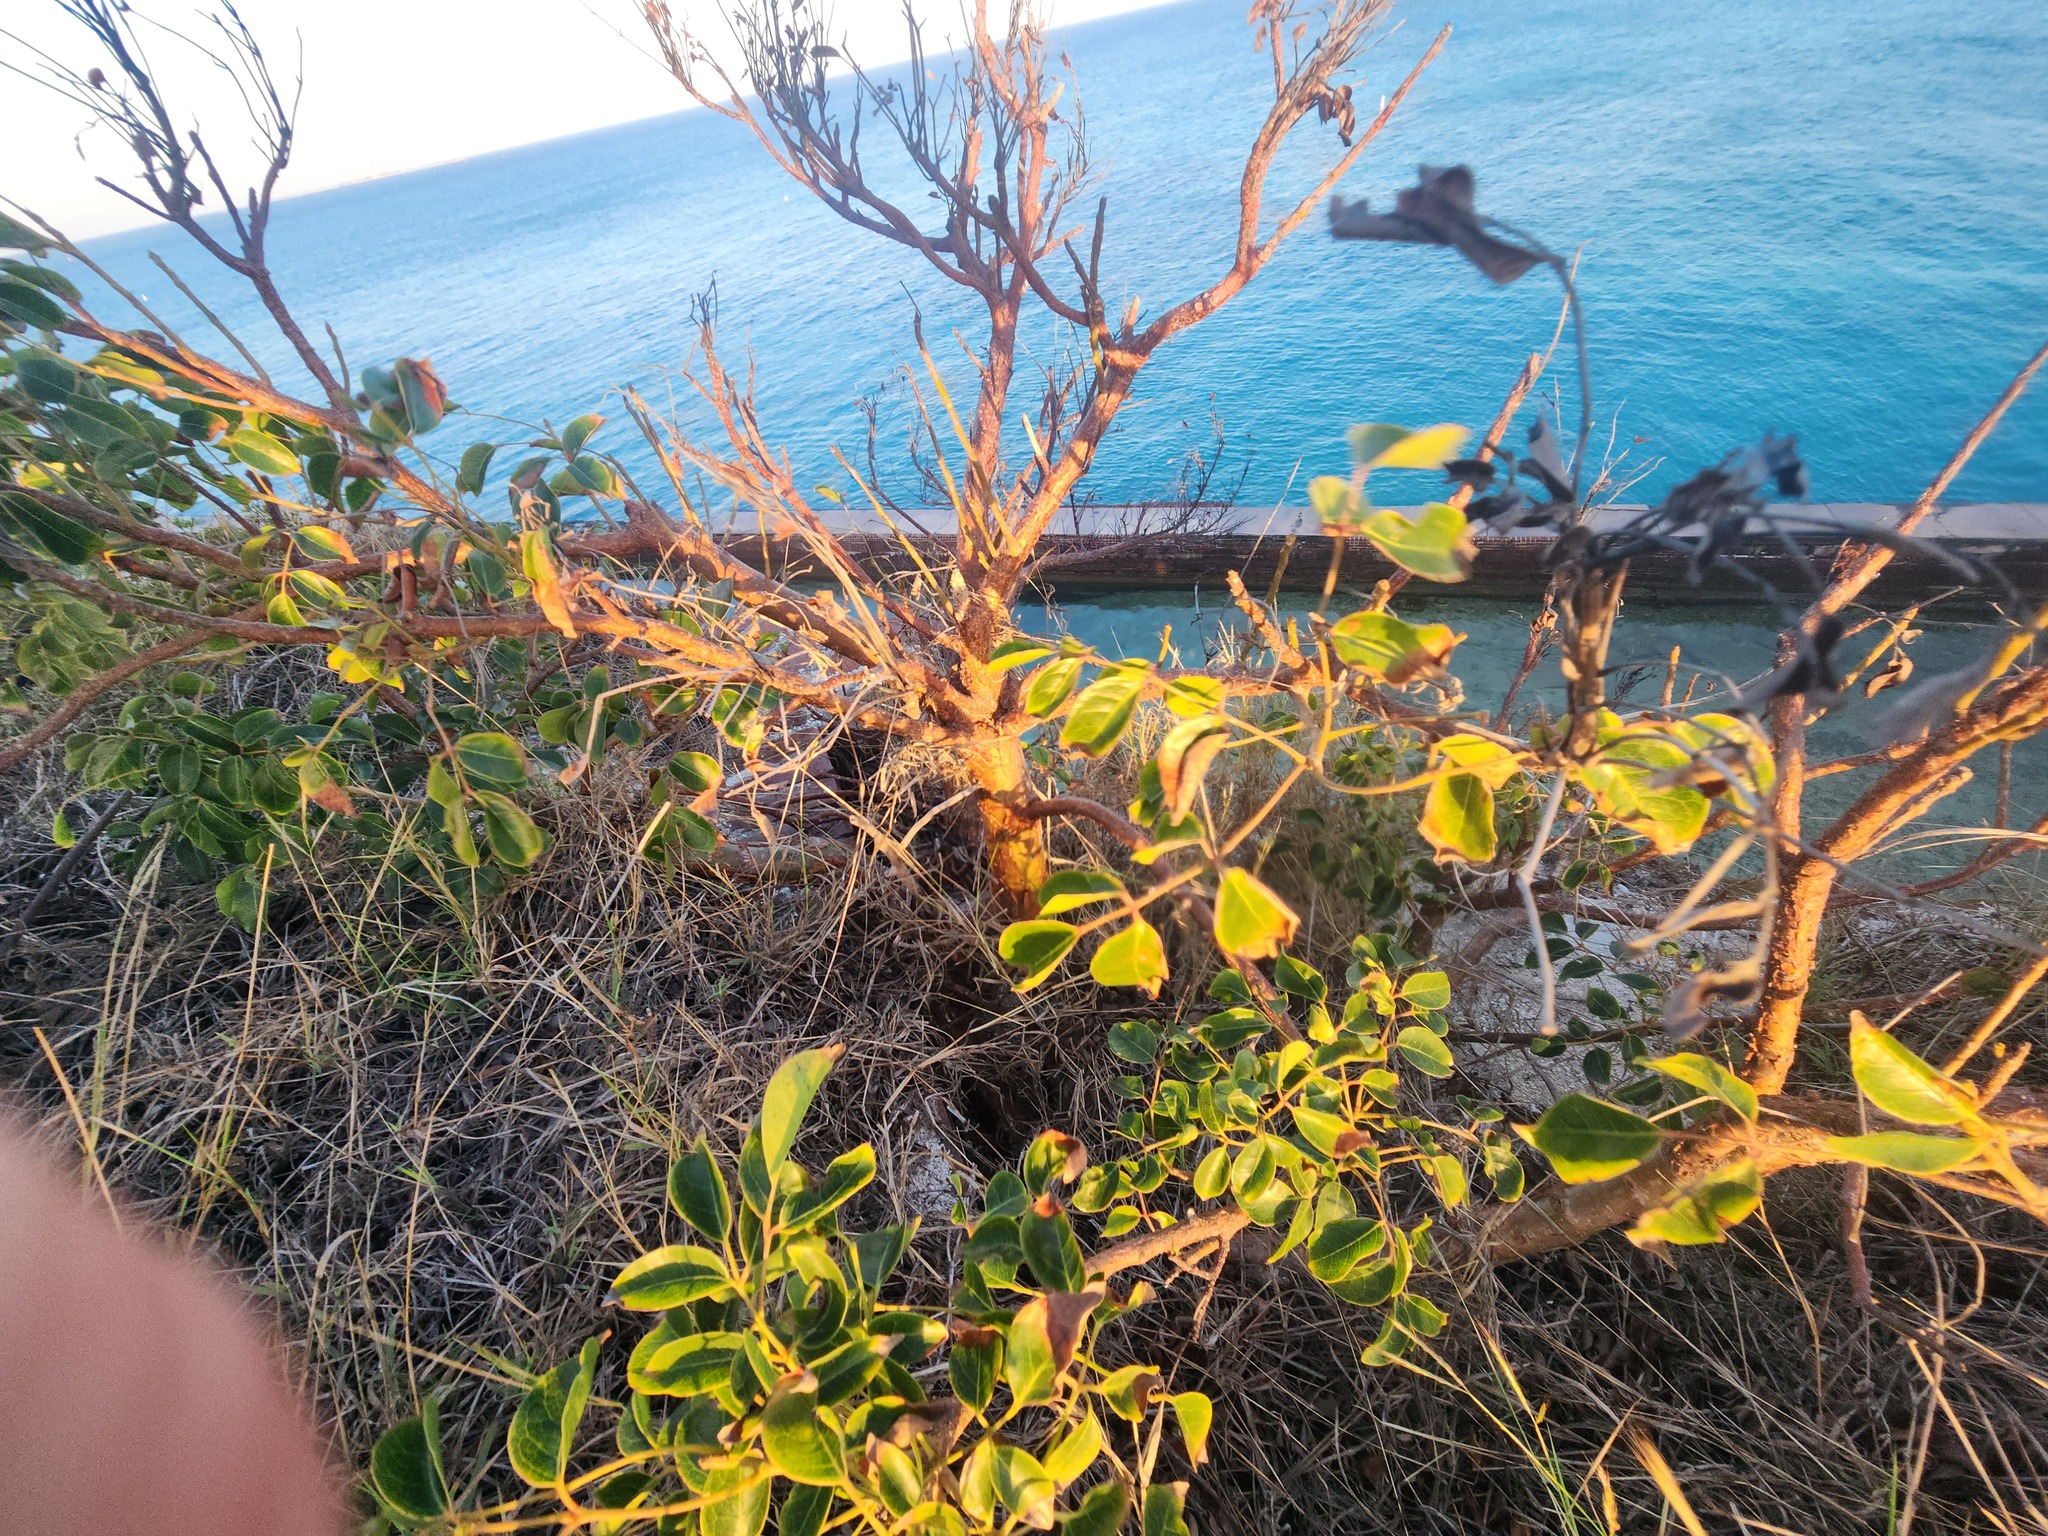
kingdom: Plantae
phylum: Tracheophyta
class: Magnoliopsida
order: Sapindales
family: Burseraceae
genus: Bursera
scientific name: Bursera simaruba
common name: Turpentine tree
